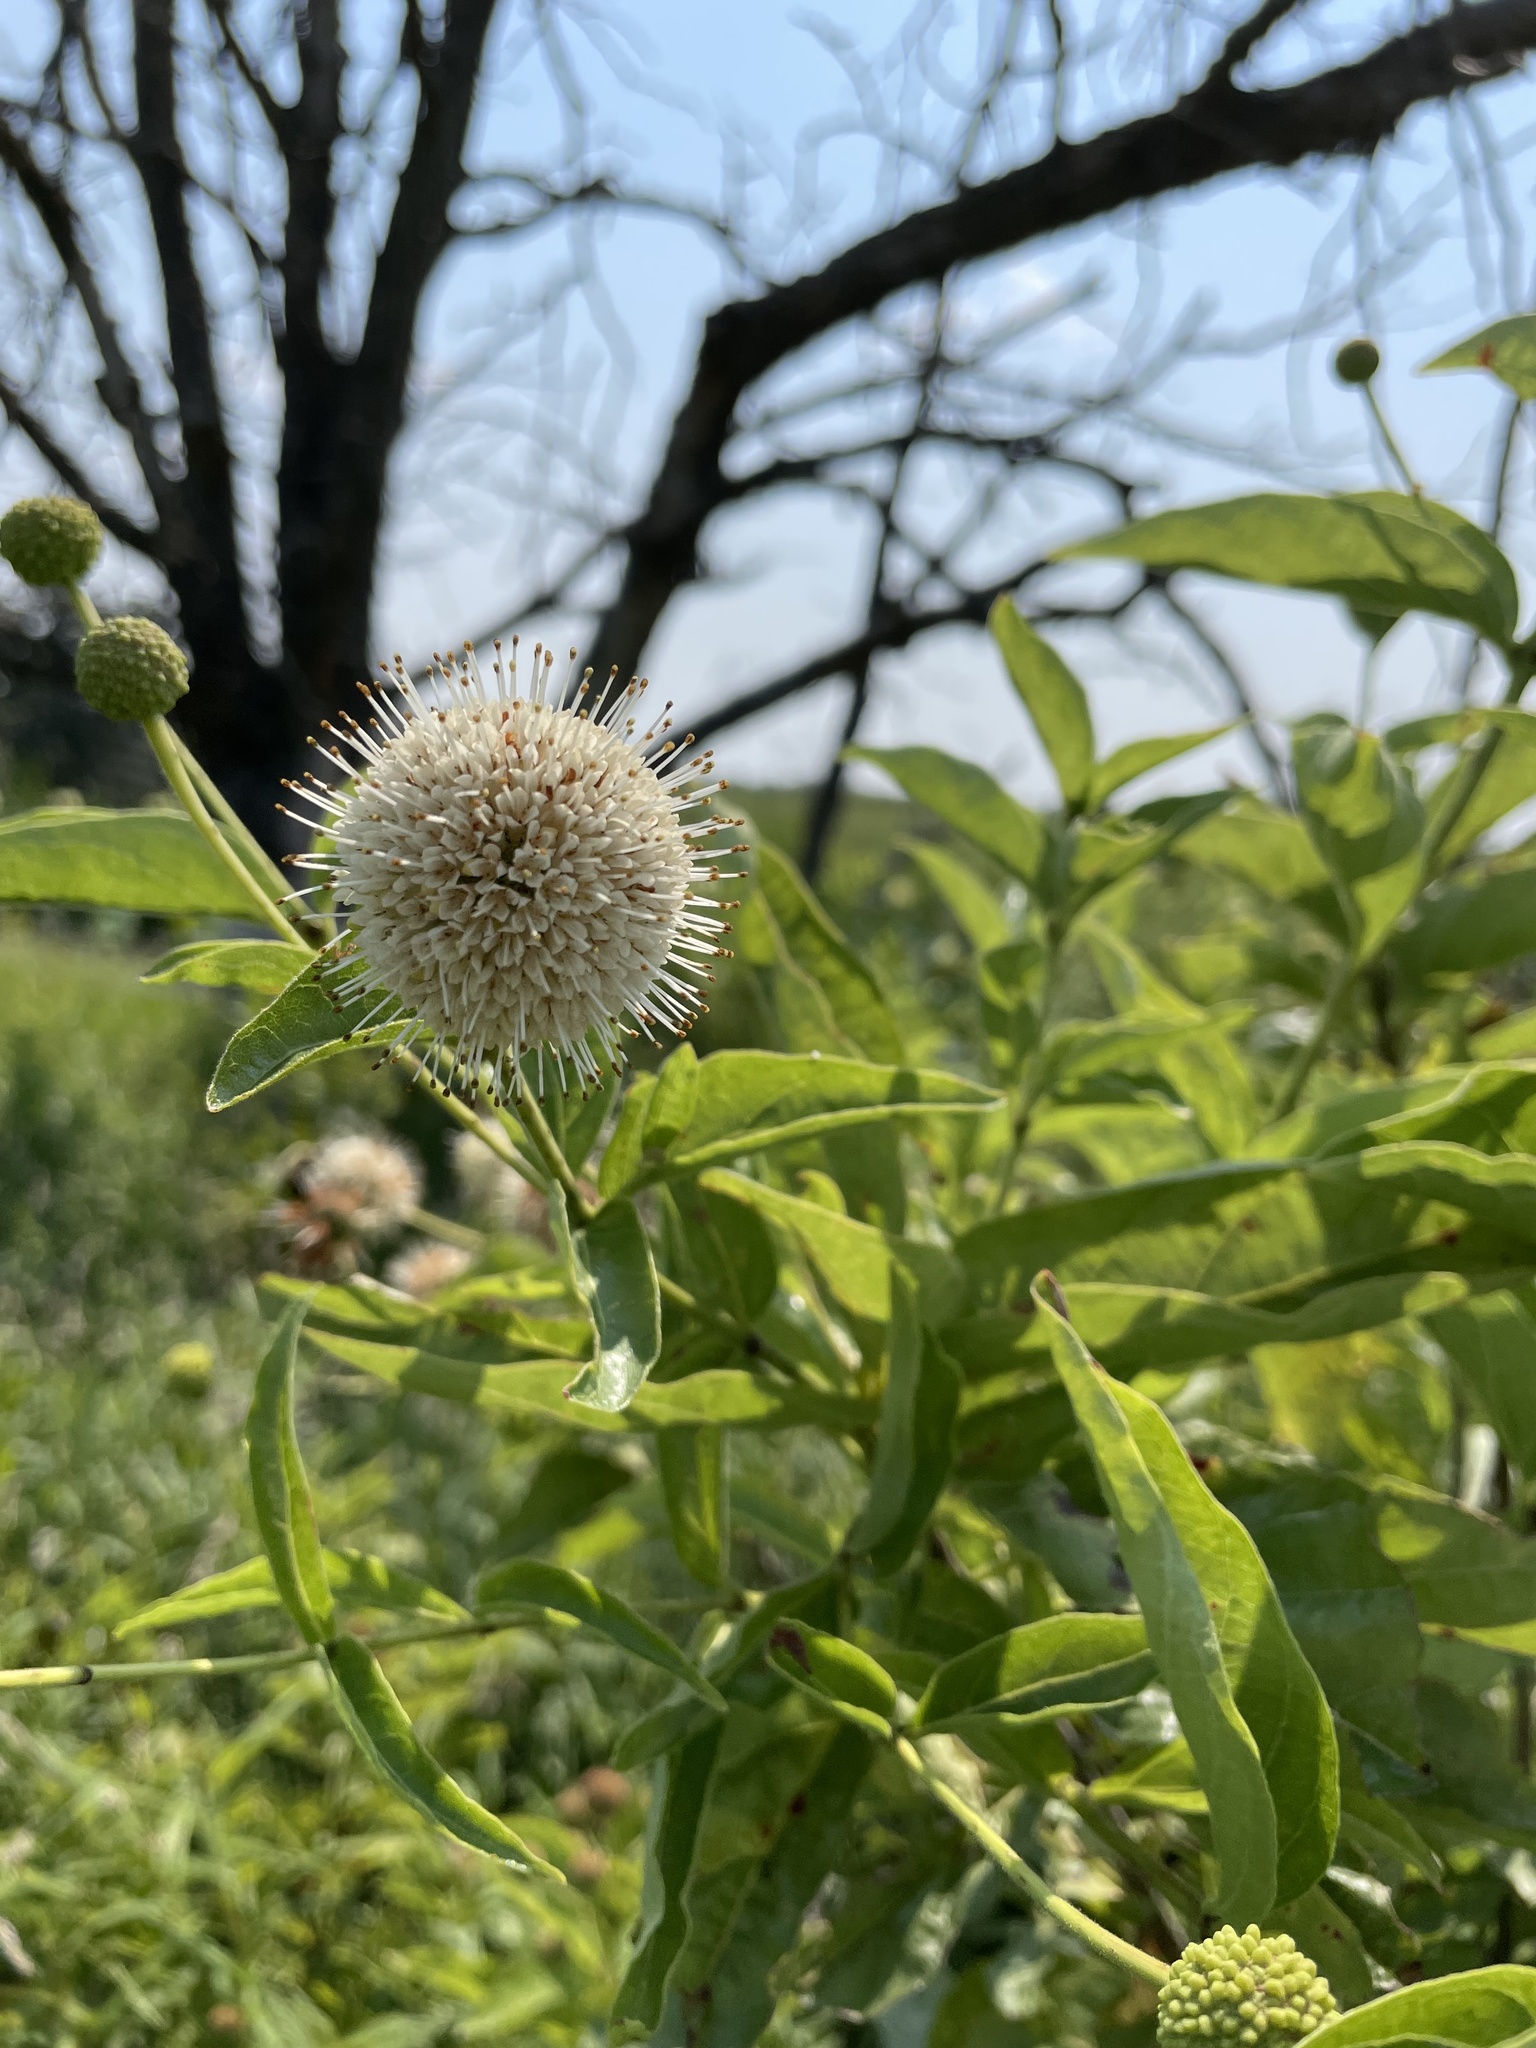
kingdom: Plantae
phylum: Tracheophyta
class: Magnoliopsida
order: Gentianales
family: Rubiaceae
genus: Cephalanthus
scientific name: Cephalanthus occidentalis
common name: Button-willow
